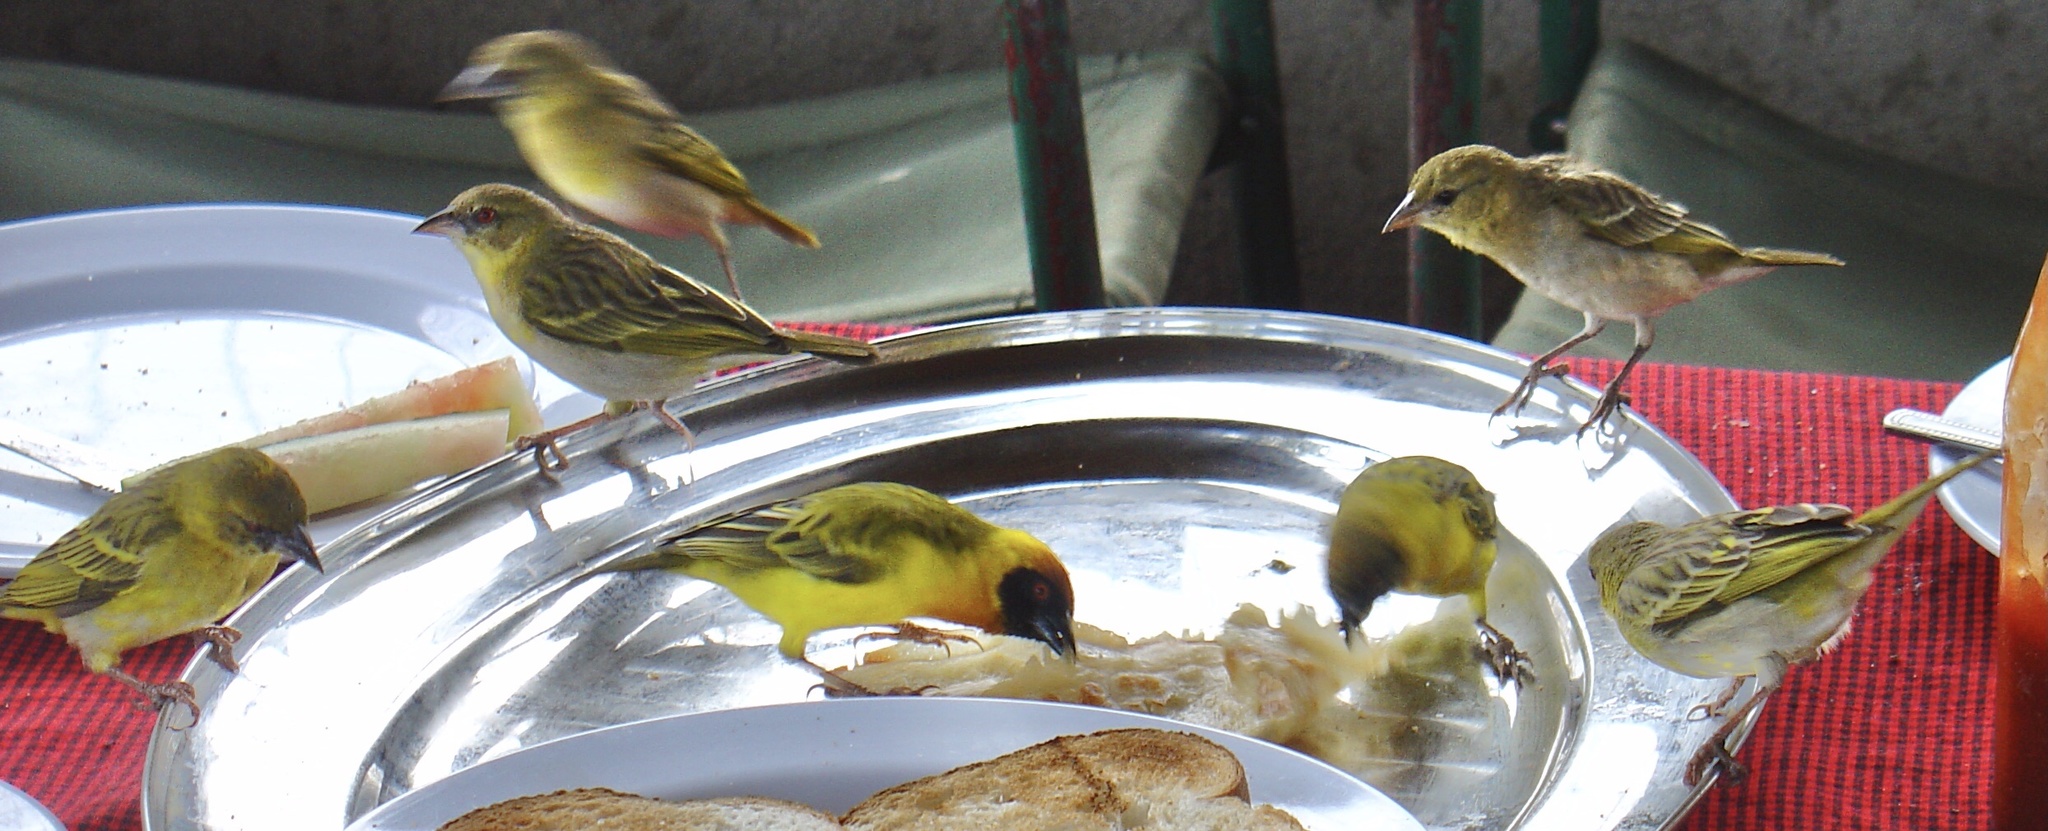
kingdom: Animalia
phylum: Chordata
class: Aves
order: Passeriformes
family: Ploceidae
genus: Ploceus
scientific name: Ploceus vitellinus
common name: Vitelline masked weaver
